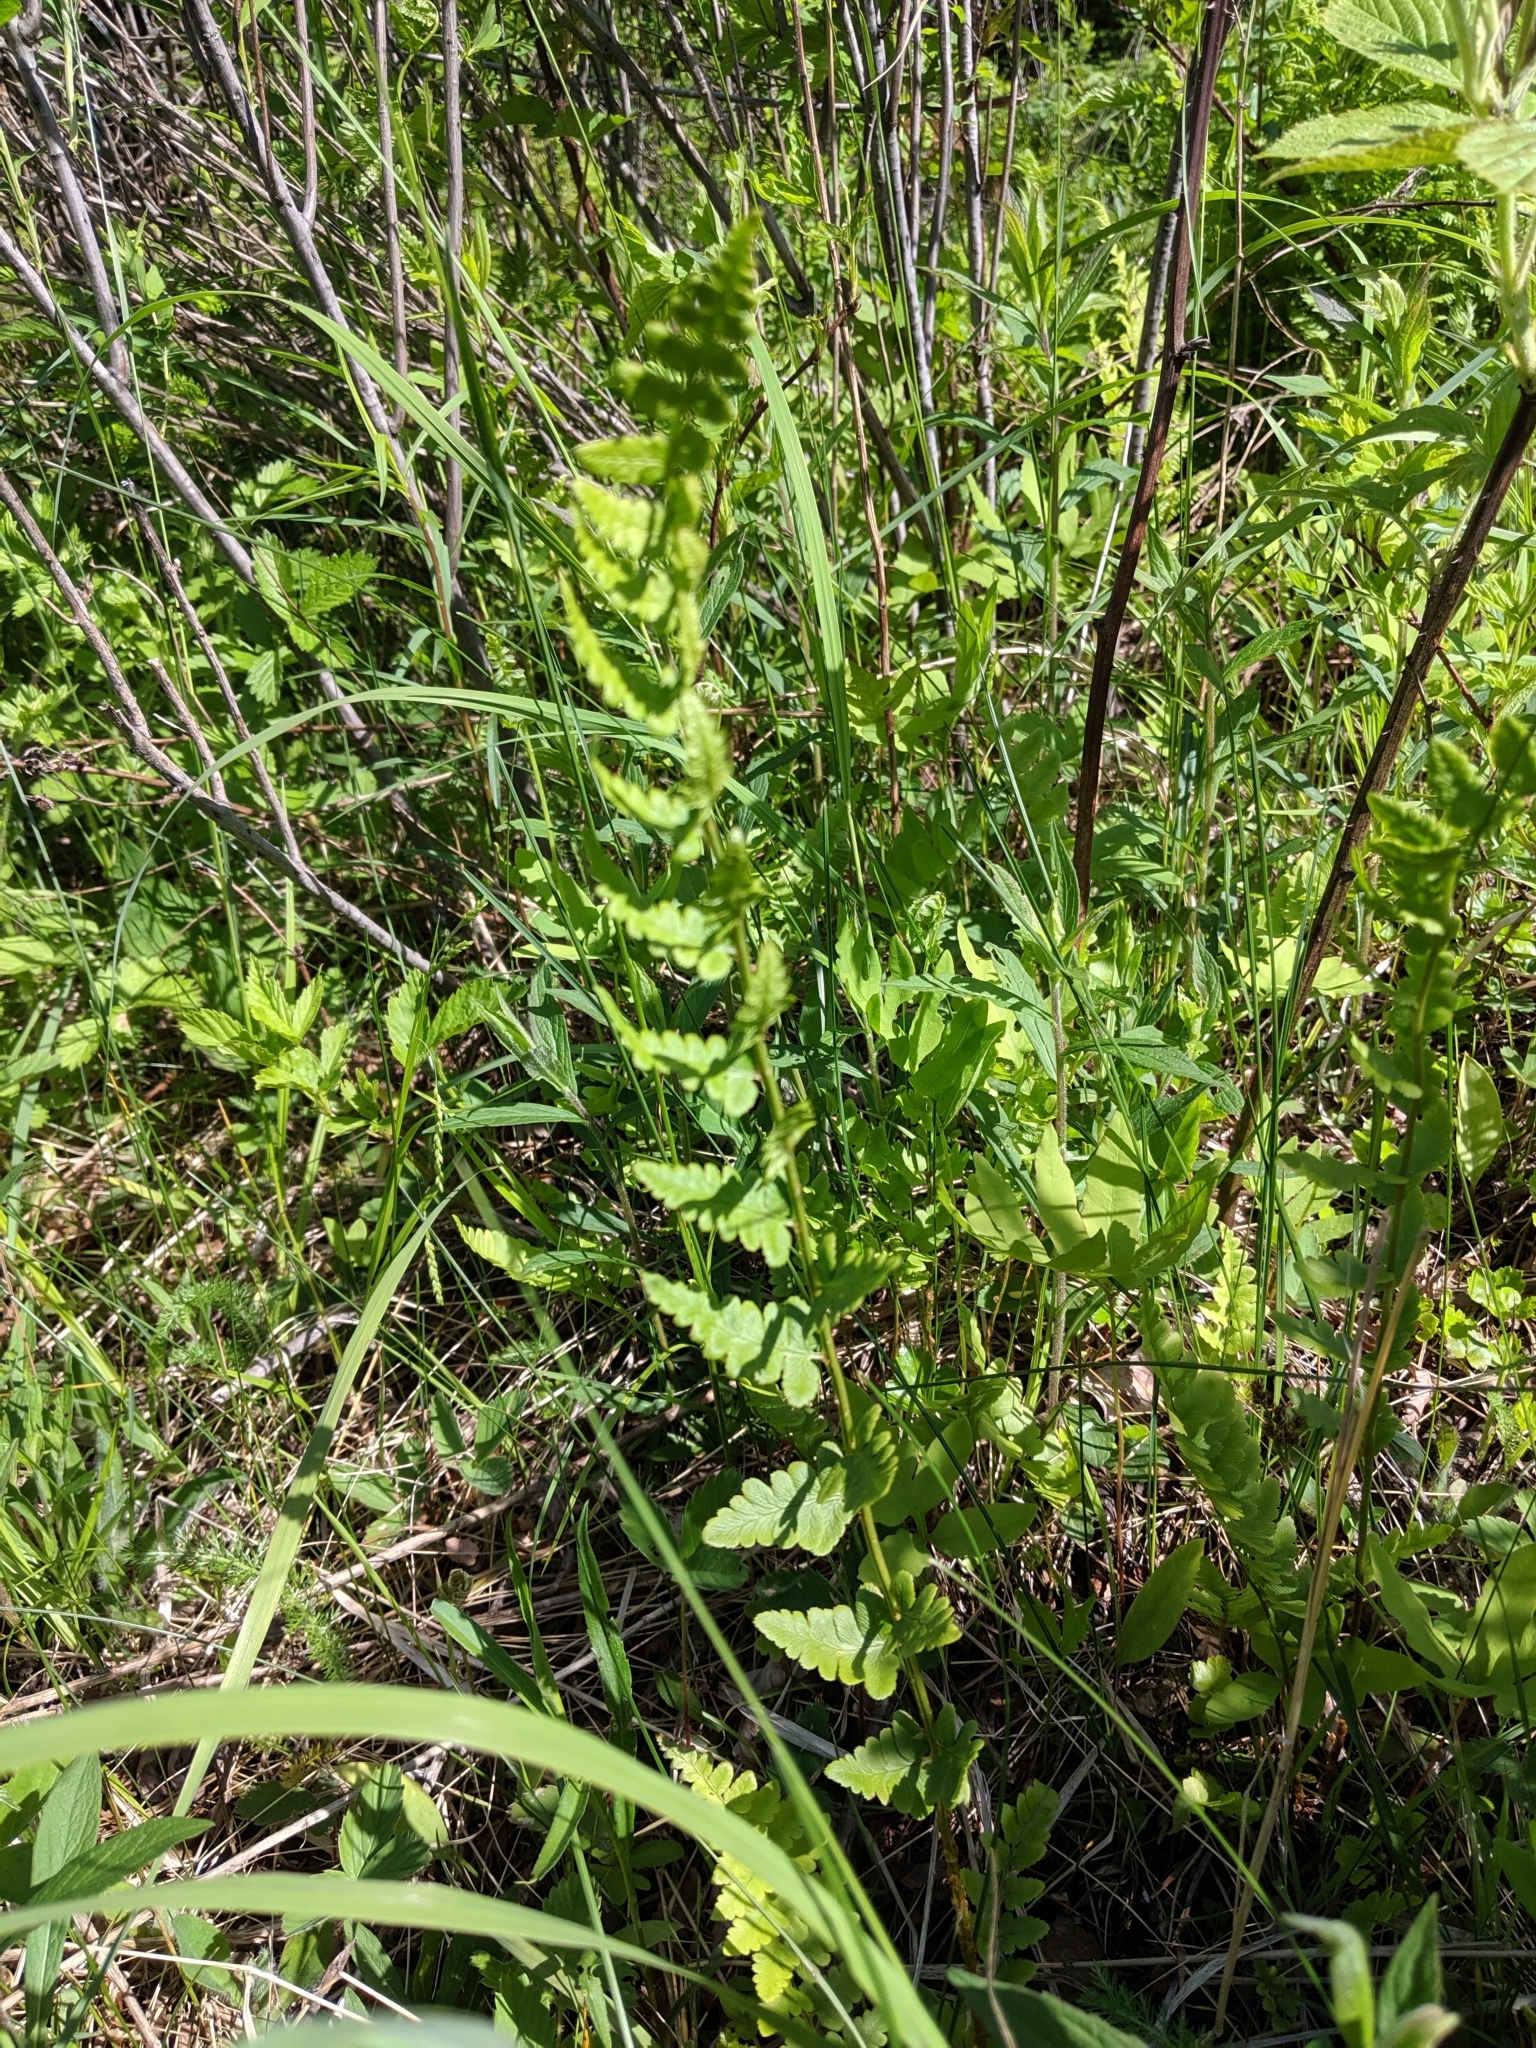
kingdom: Plantae
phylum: Tracheophyta
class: Polypodiopsida
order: Polypodiales
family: Dryopteridaceae
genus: Dryopteris
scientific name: Dryopteris cristata
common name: Crested wood fern
